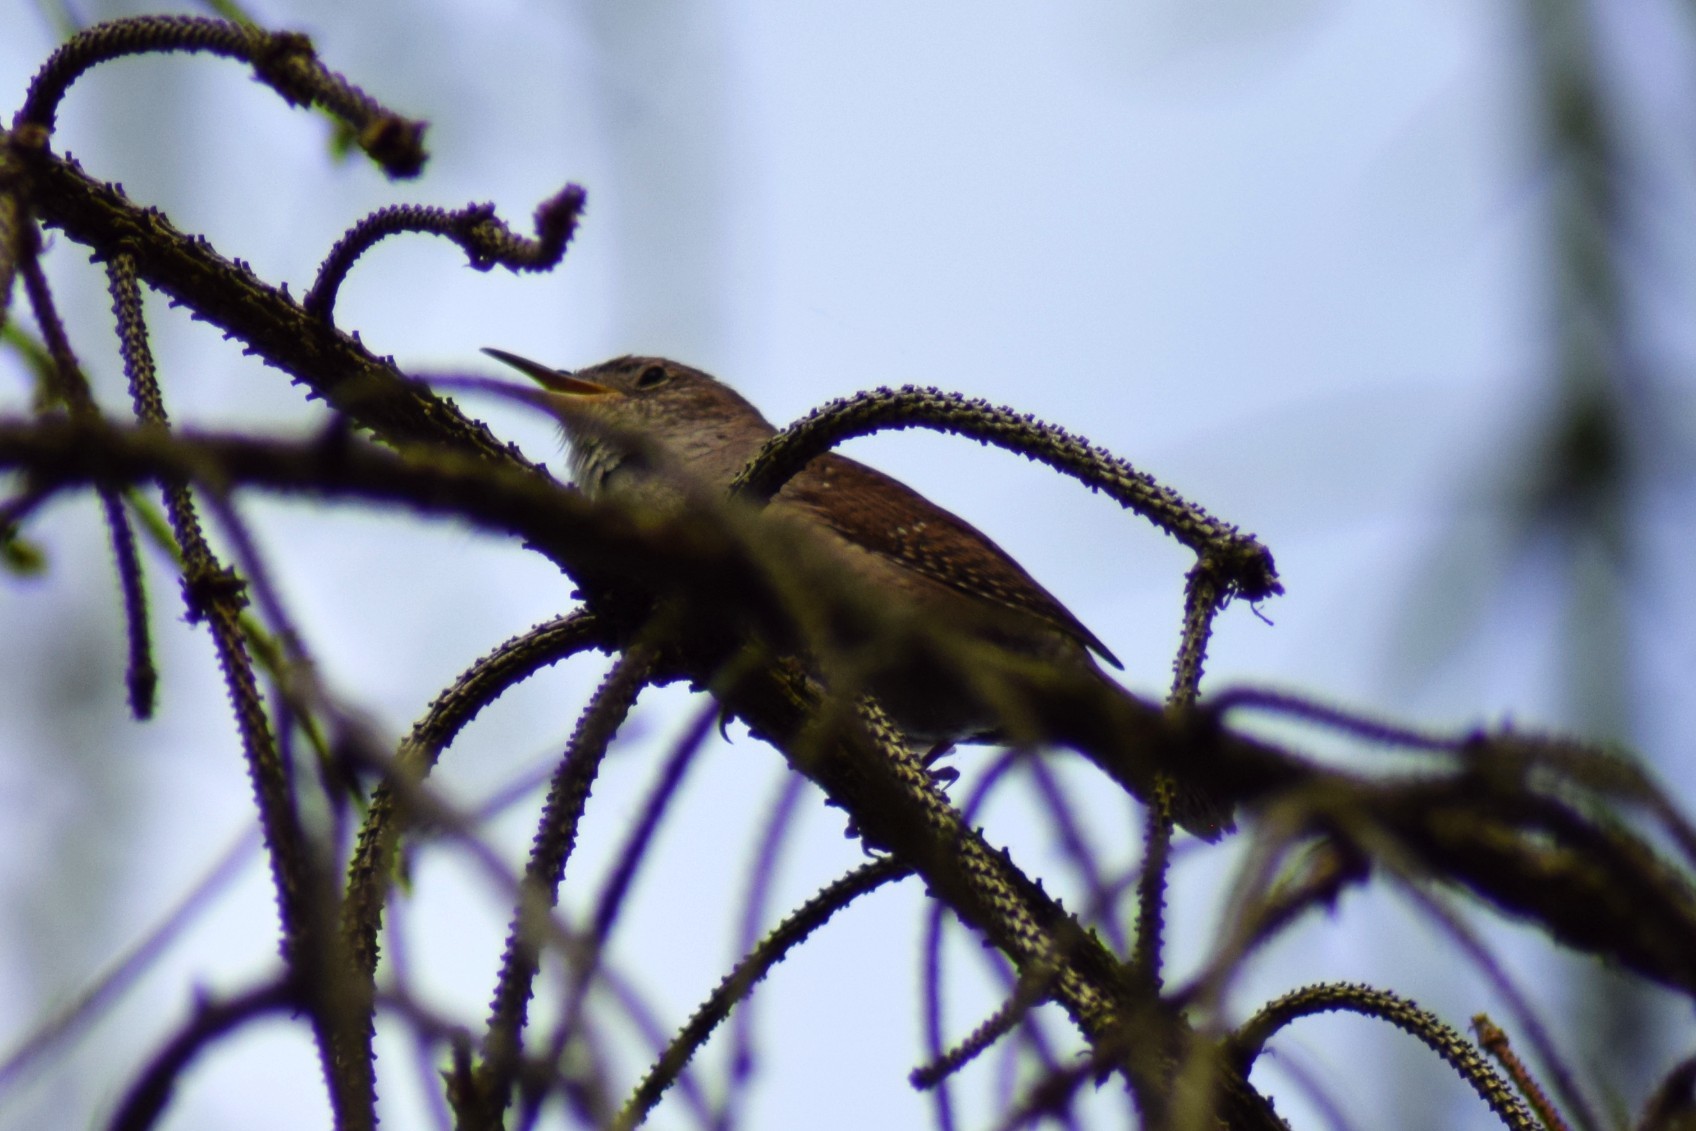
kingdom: Animalia
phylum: Chordata
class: Aves
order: Passeriformes
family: Troglodytidae
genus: Troglodytes
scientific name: Troglodytes aedon
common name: House wren
